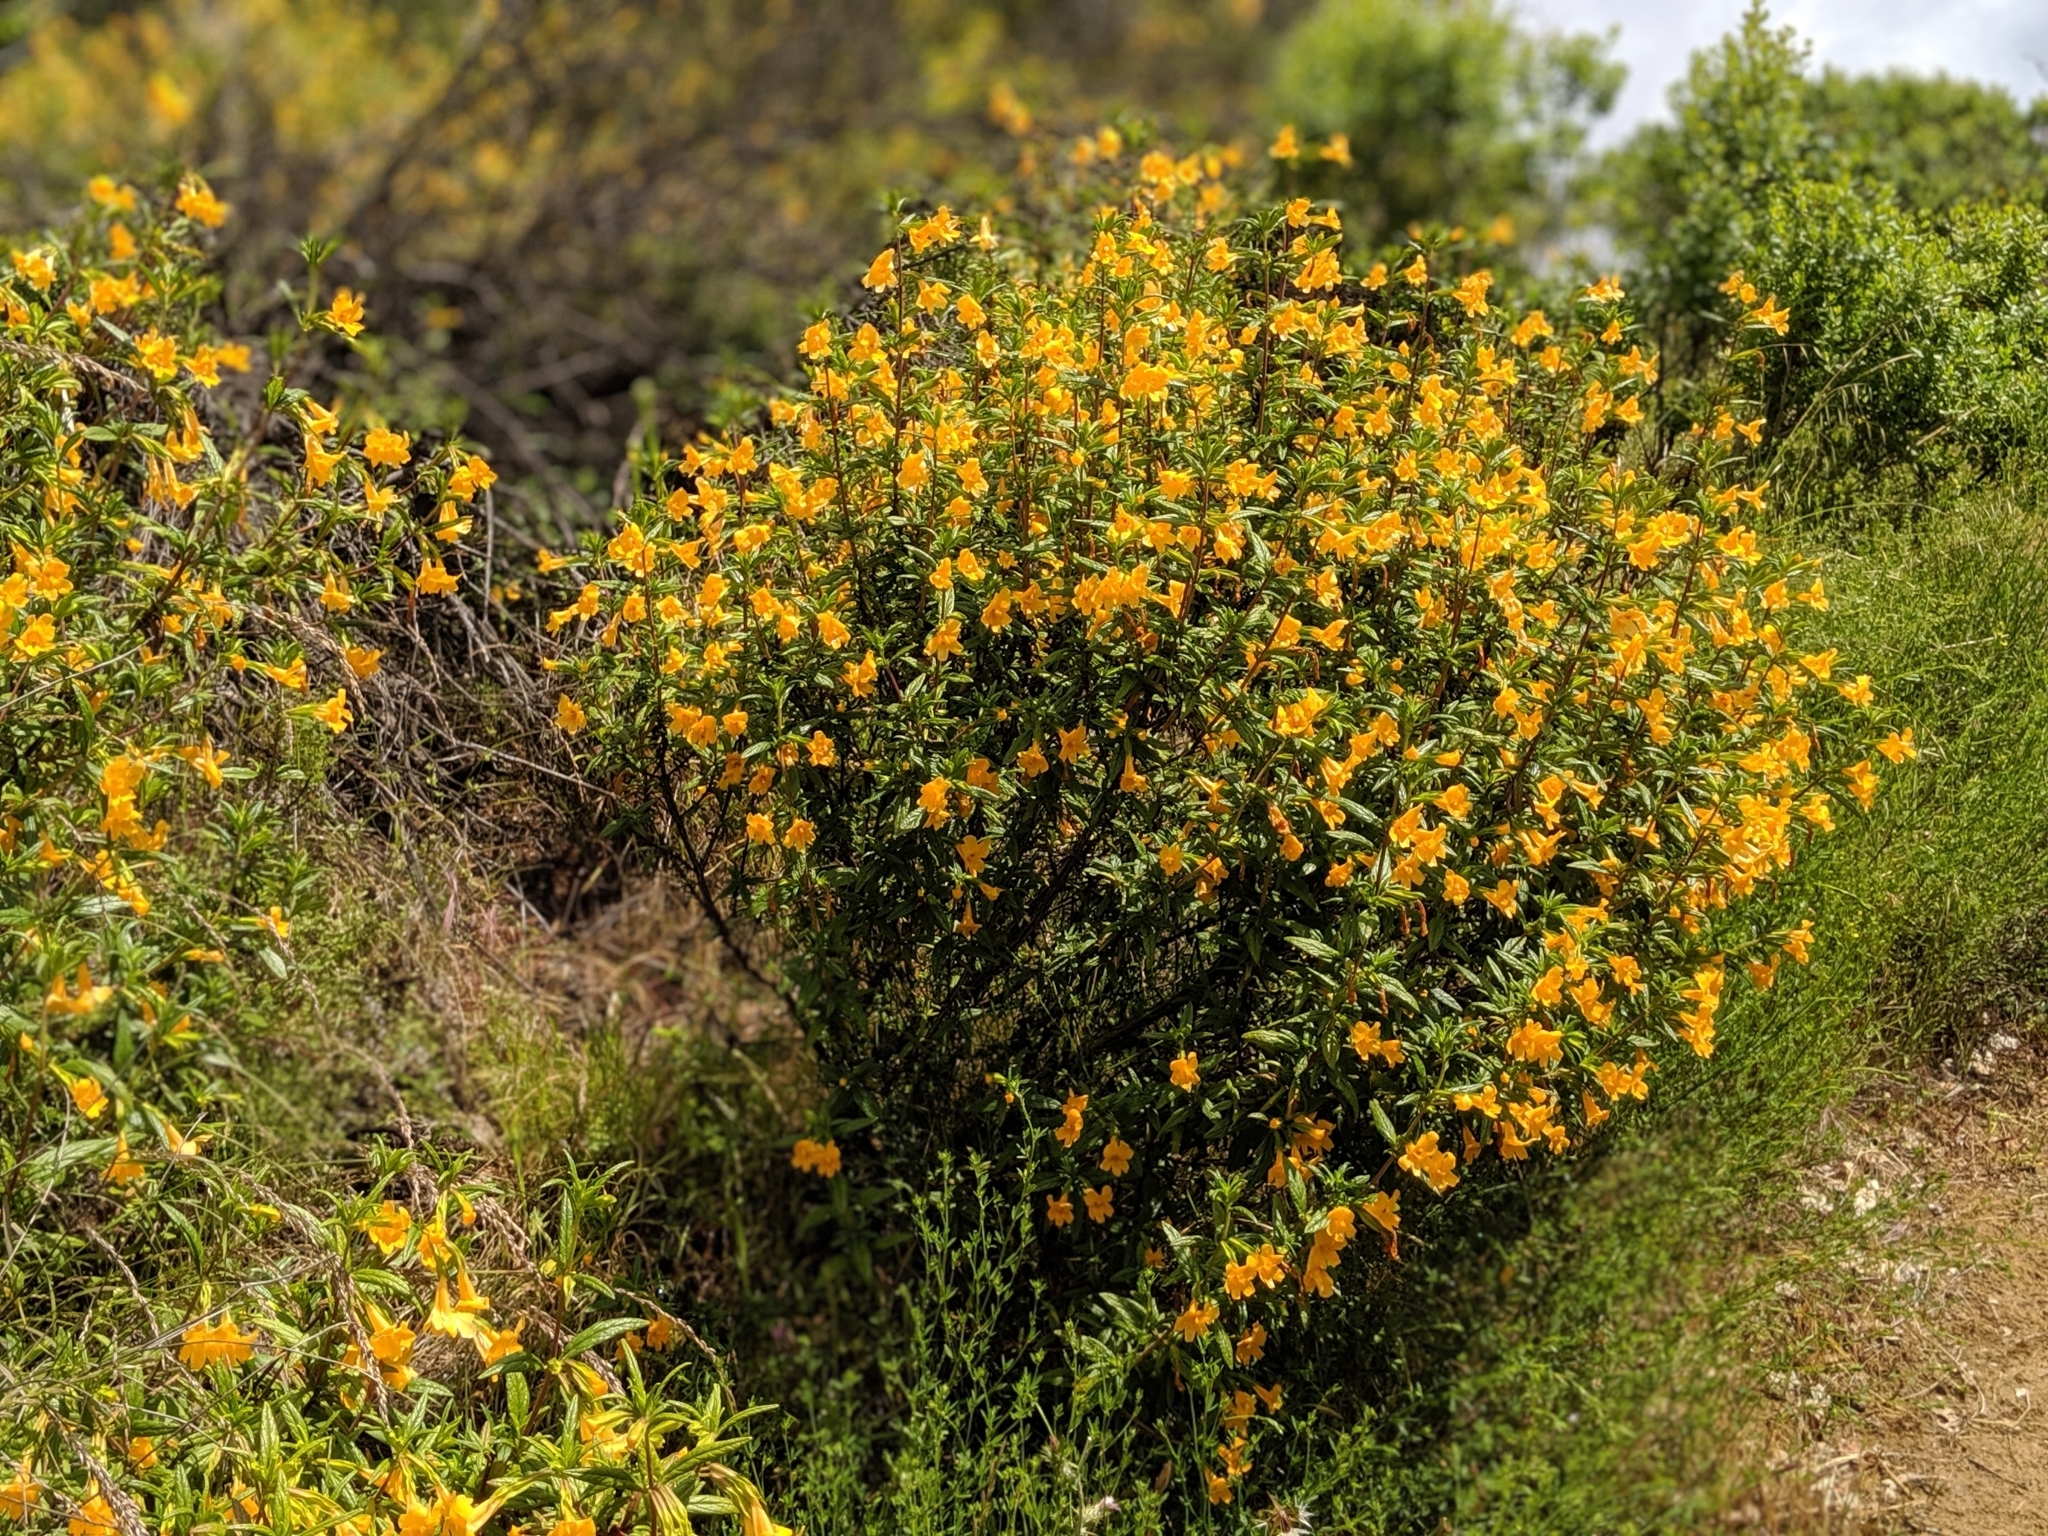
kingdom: Plantae
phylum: Tracheophyta
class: Magnoliopsida
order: Lamiales
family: Phrymaceae
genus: Diplacus
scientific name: Diplacus aurantiacus
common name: Bush monkey-flower
